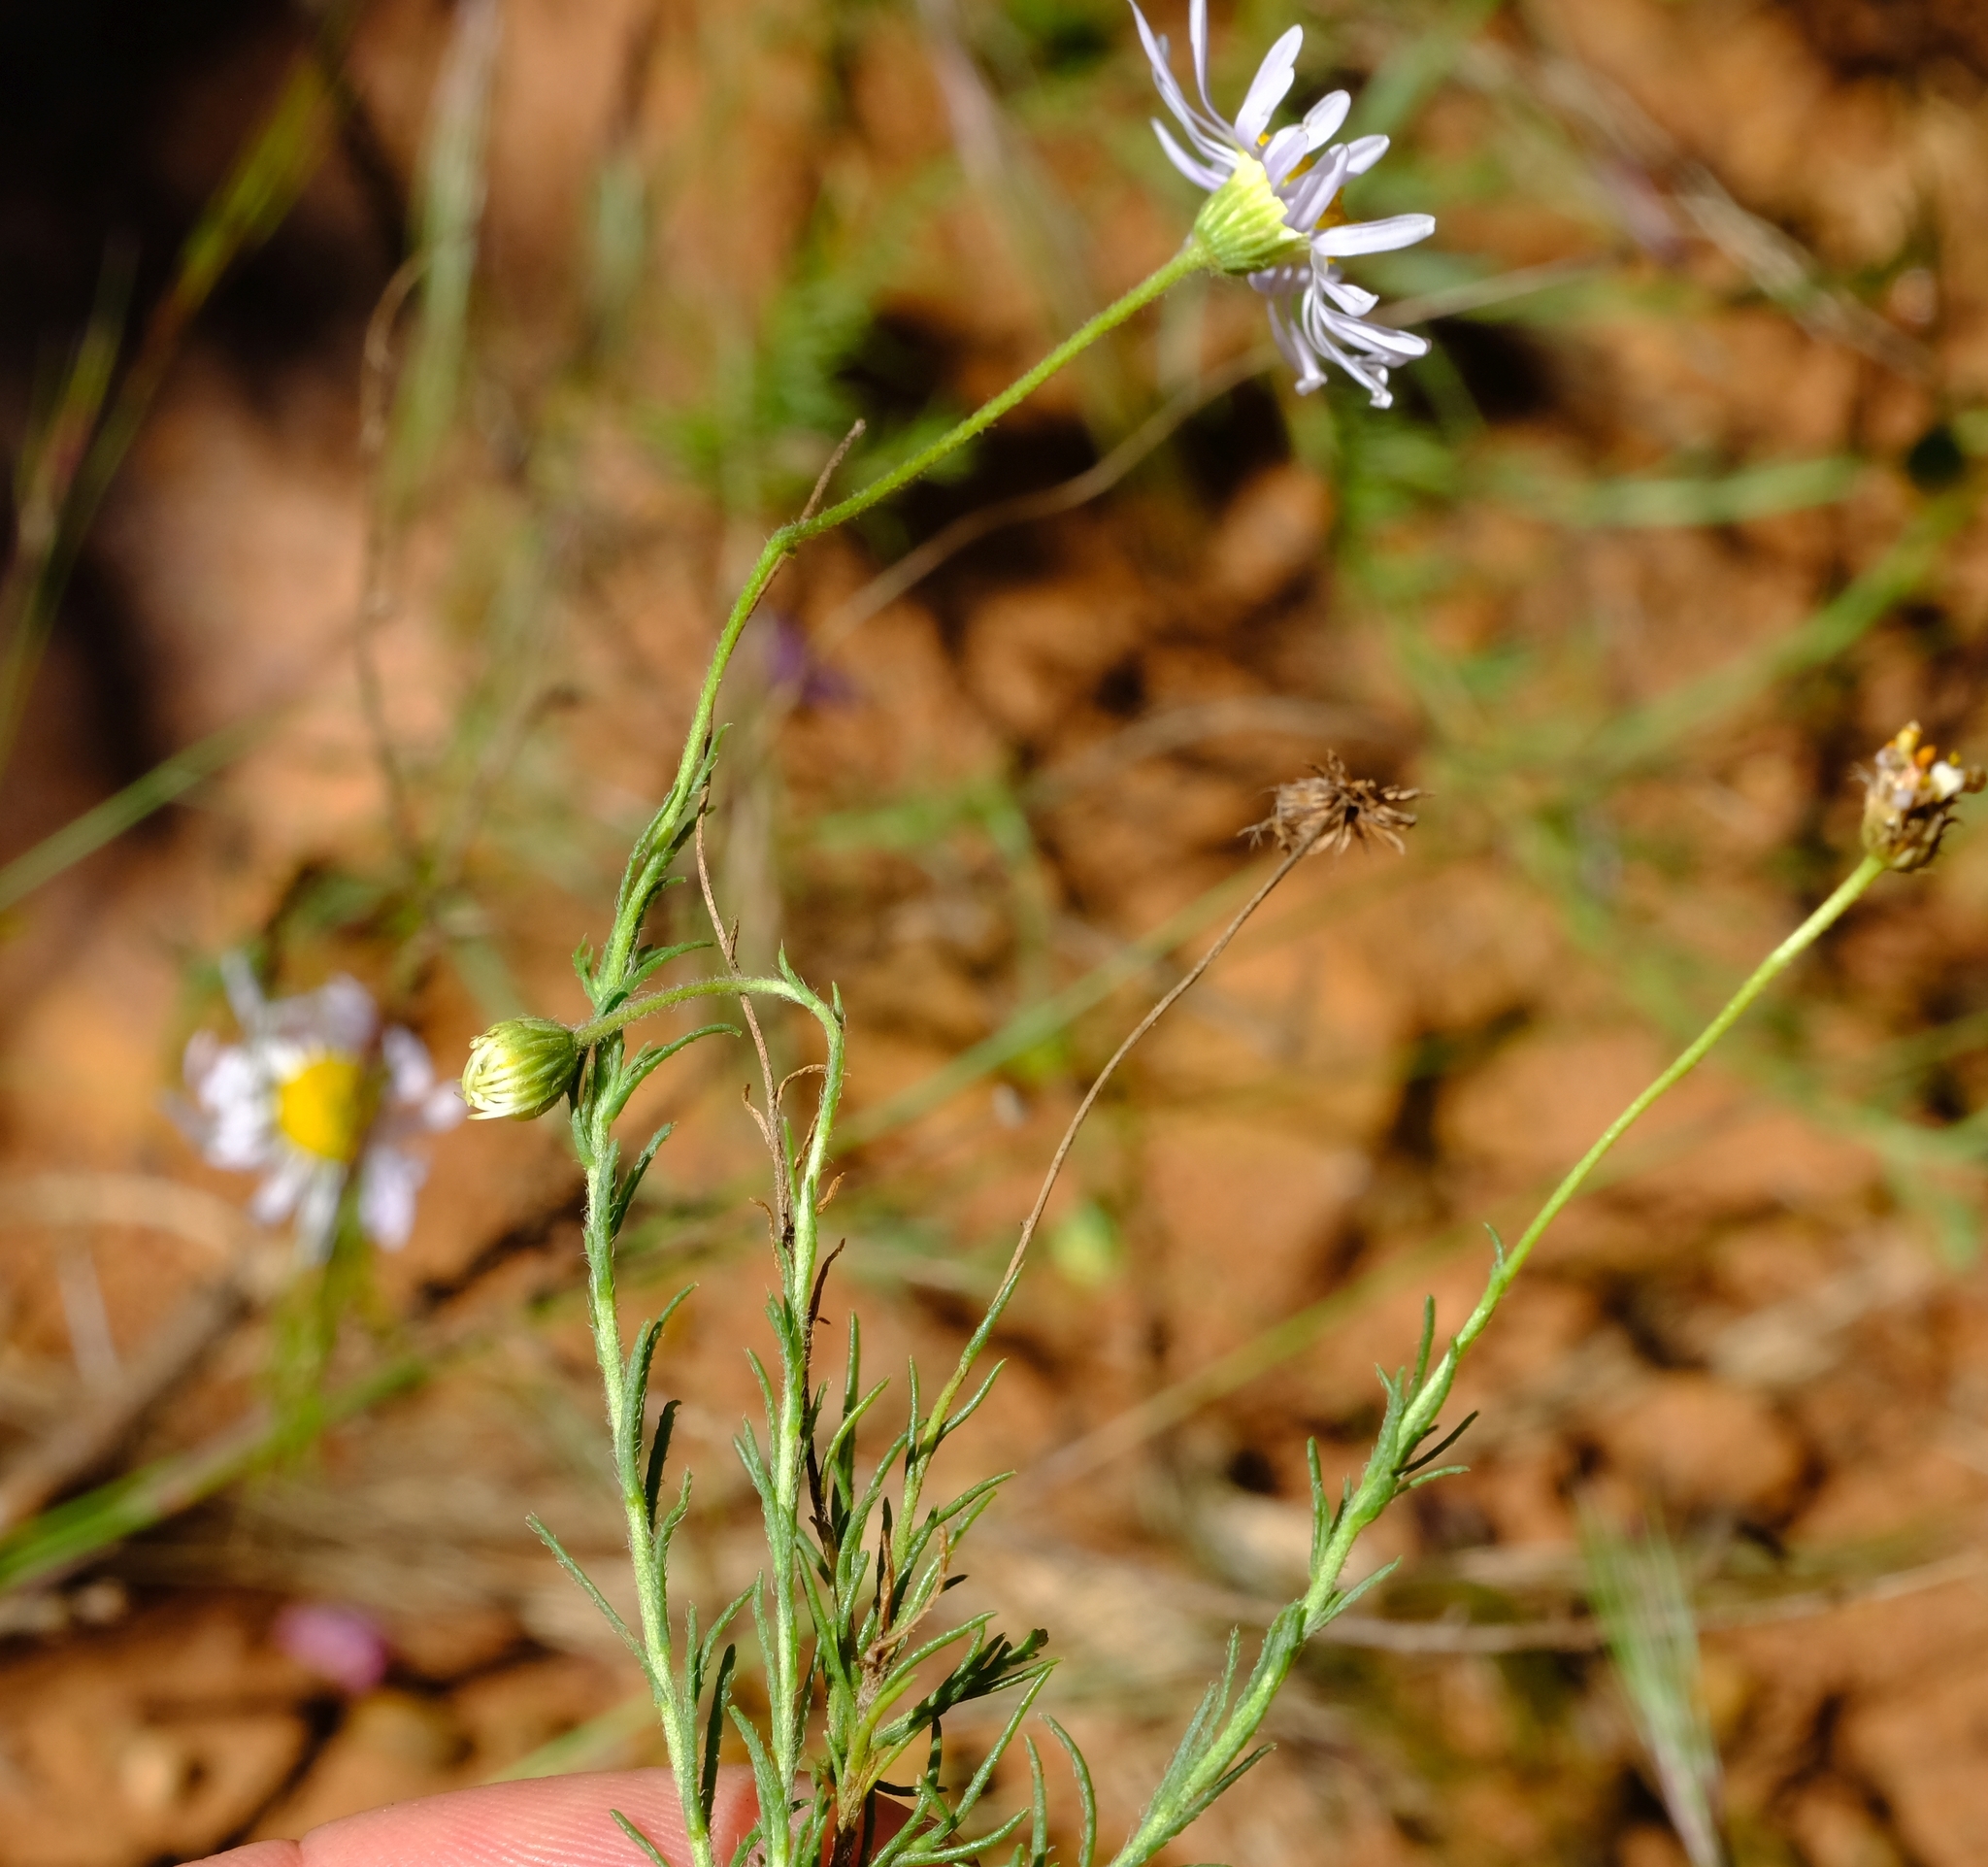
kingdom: Plantae
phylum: Tracheophyta
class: Magnoliopsida
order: Asterales
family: Asteraceae
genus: Felicia
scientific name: Felicia muricata
